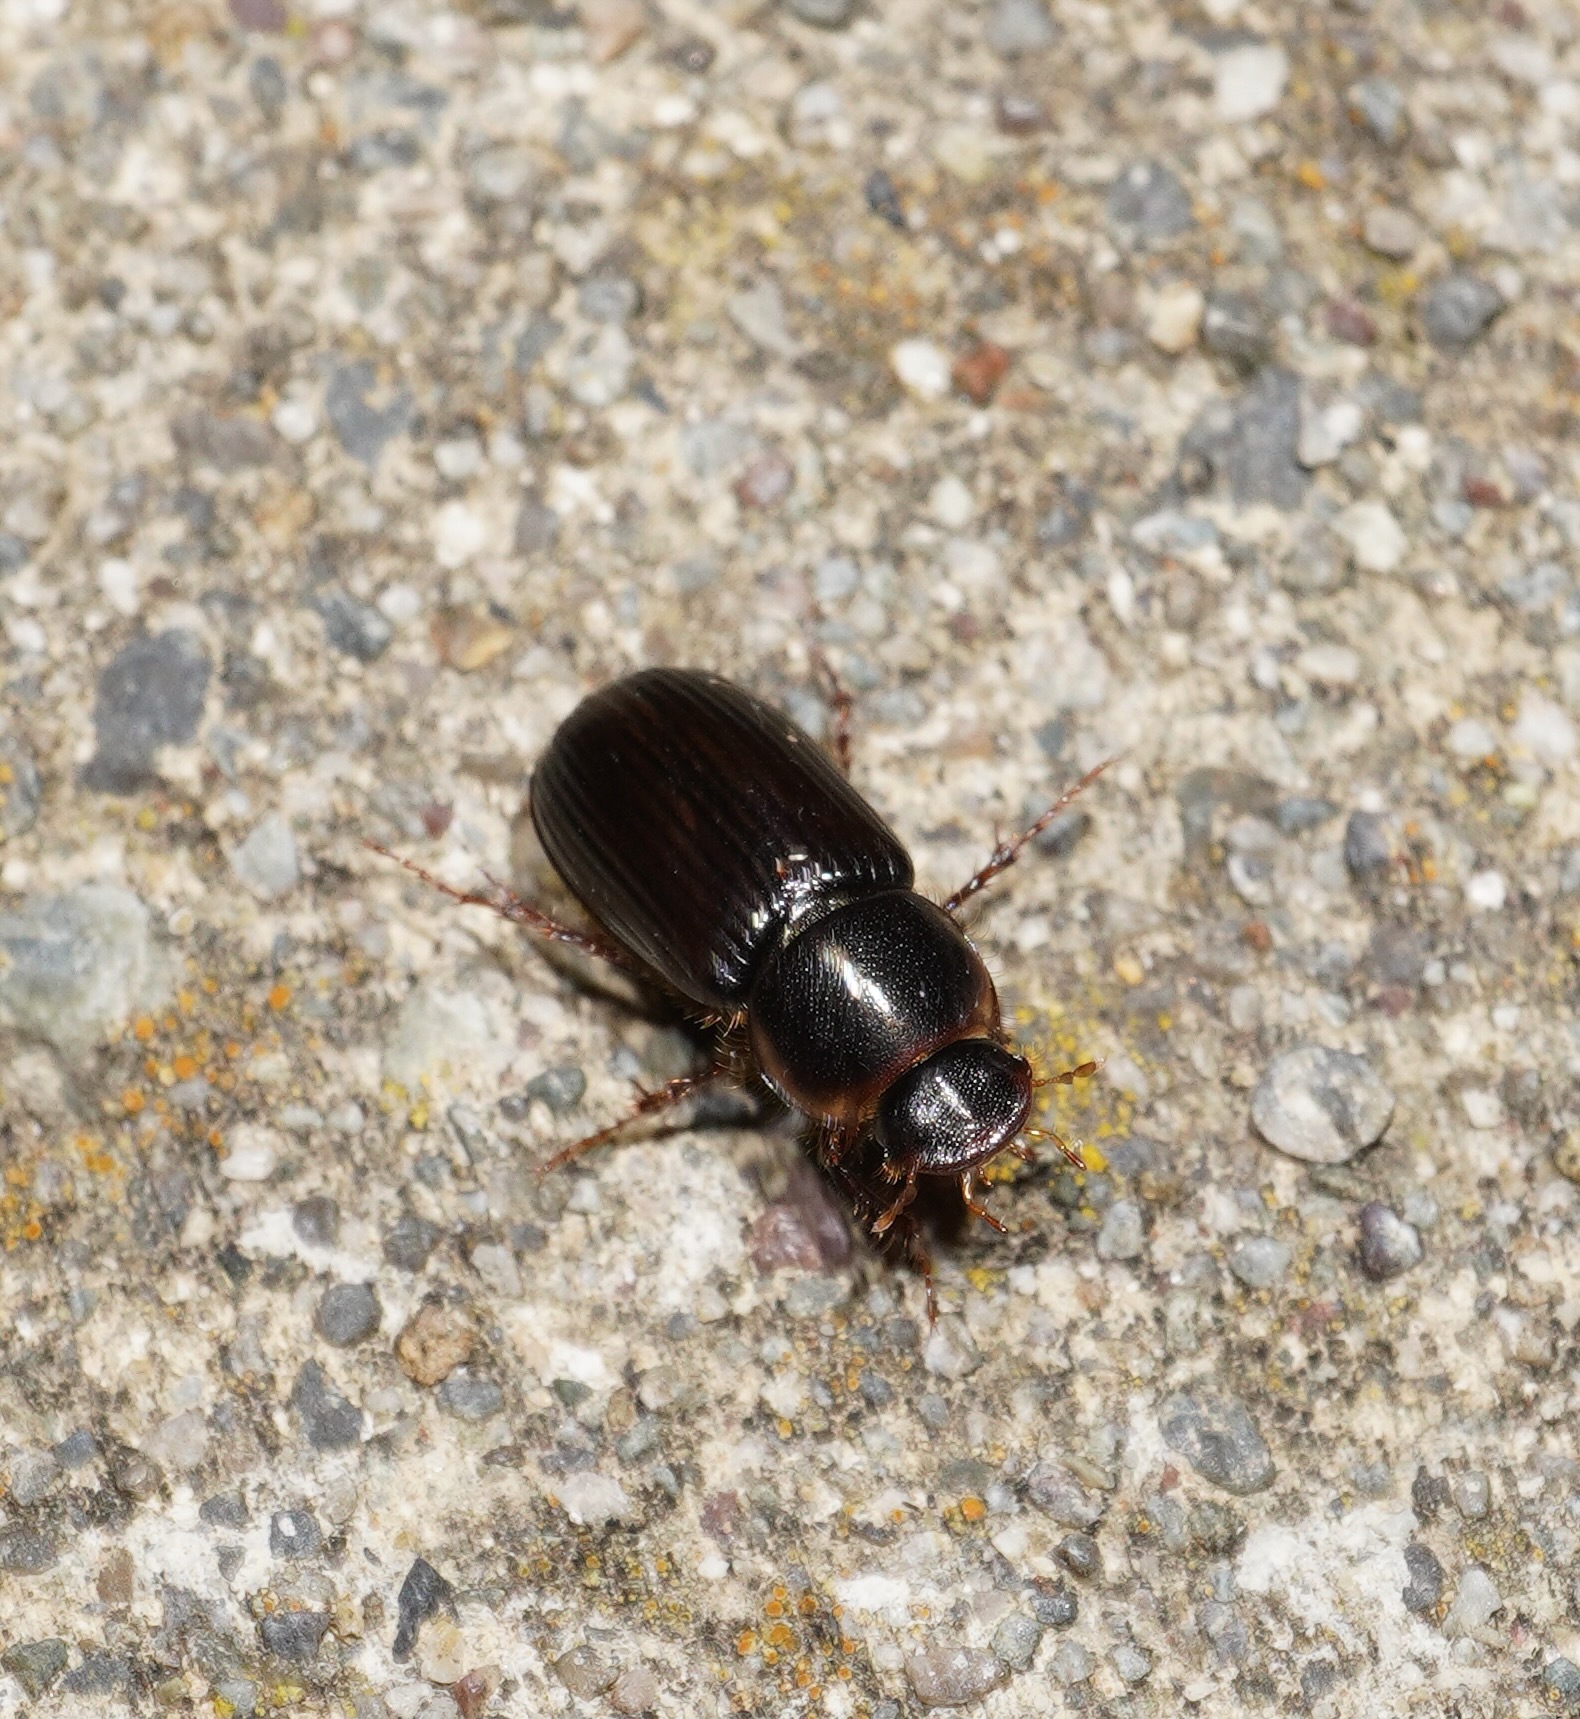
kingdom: Animalia
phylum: Arthropoda
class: Insecta
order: Coleoptera
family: Scarabaeidae
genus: Acrossidius
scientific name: Acrossidius tasmaniae
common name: Black-headed pasture cockchafer
